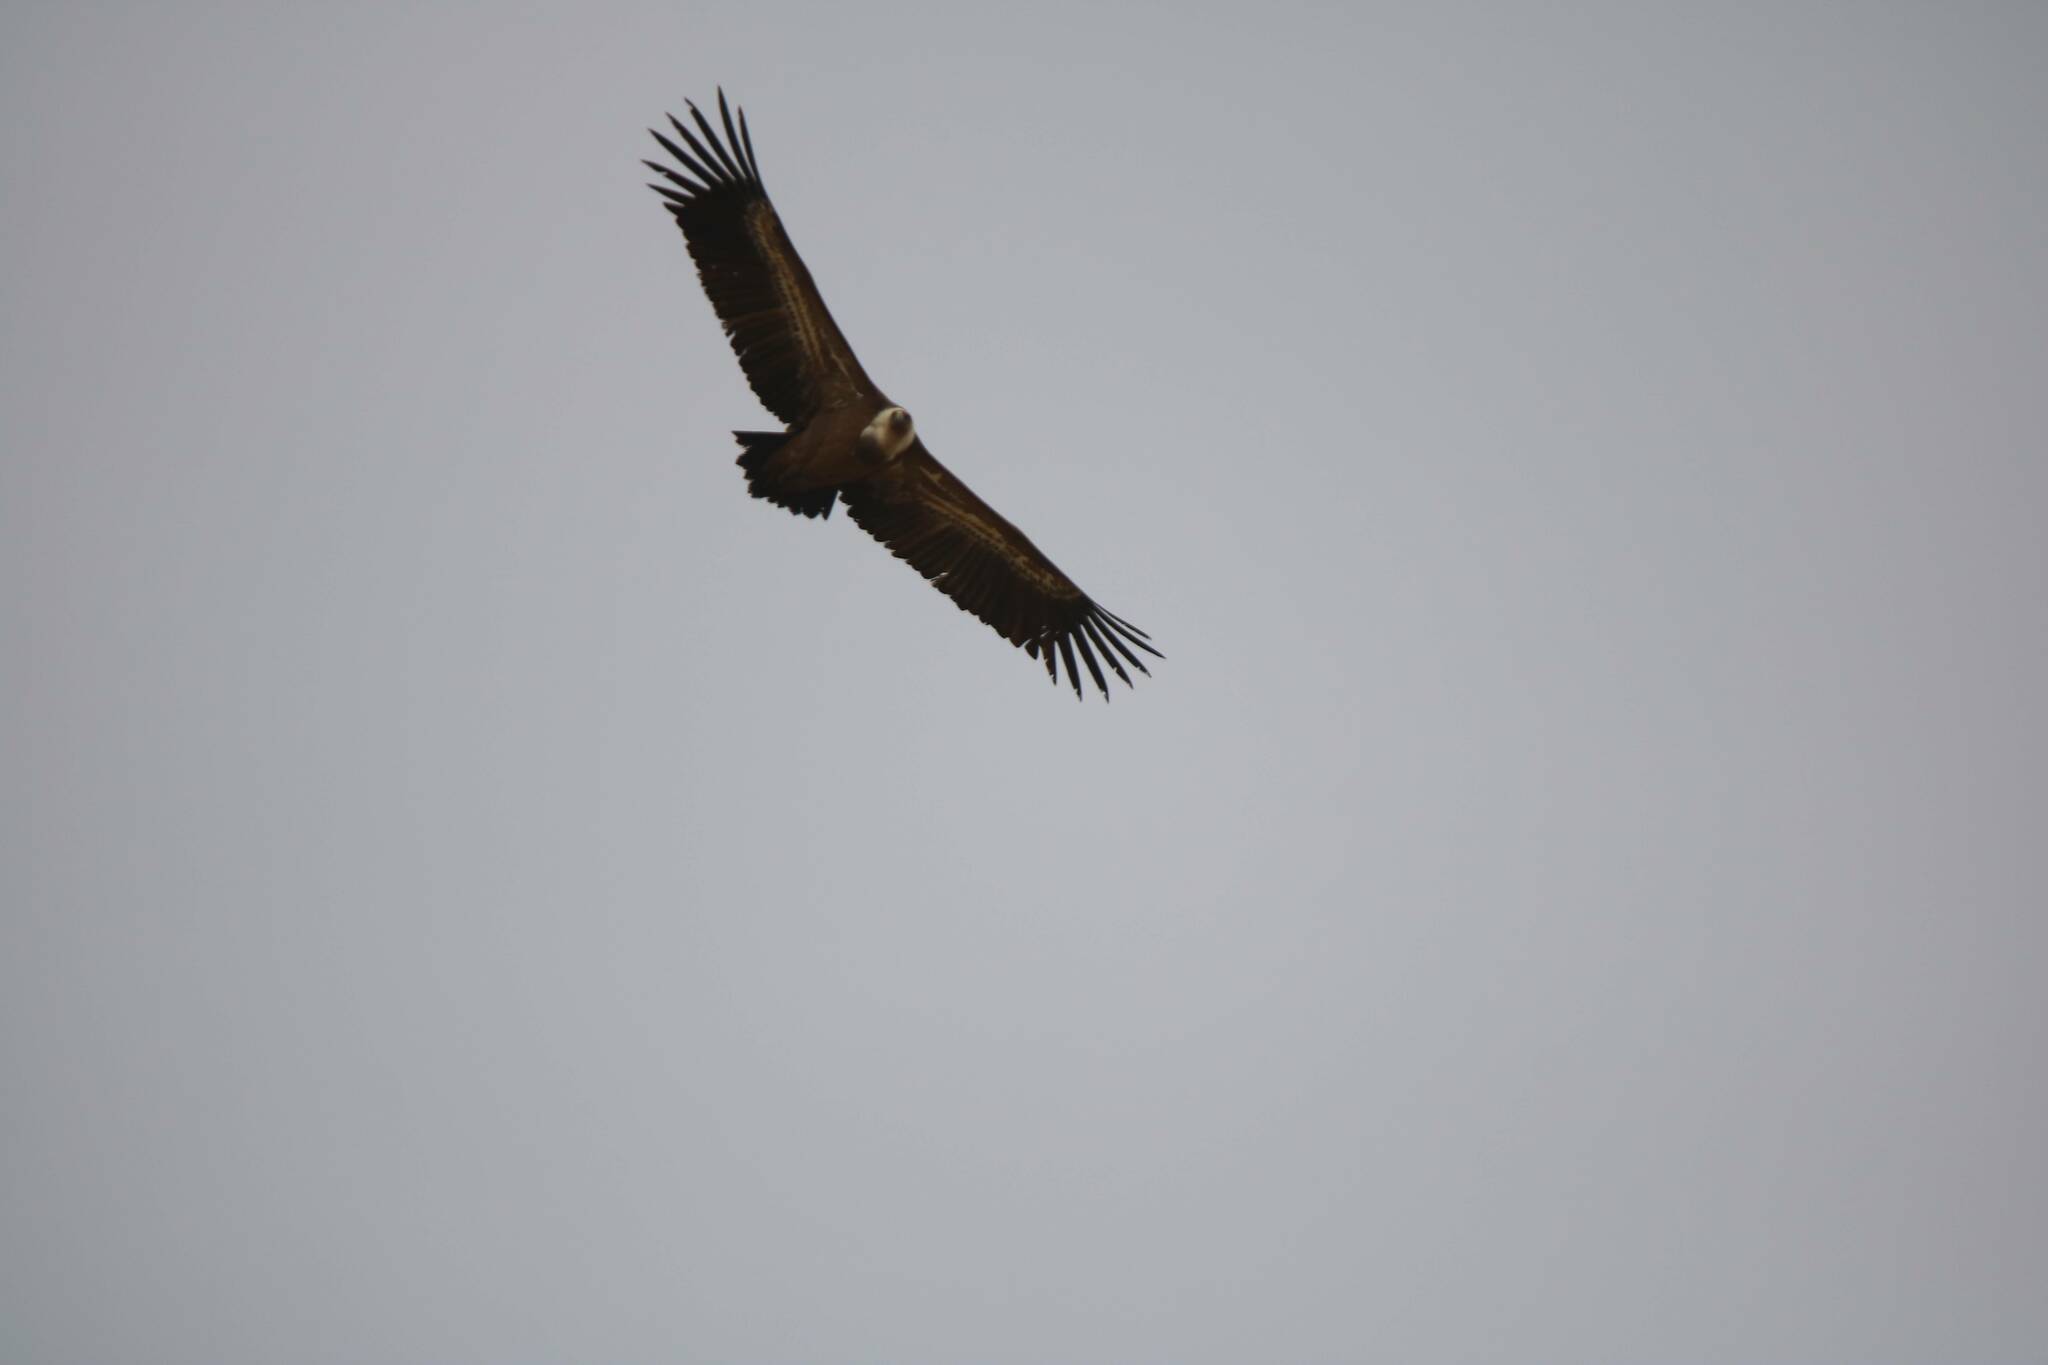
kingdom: Animalia
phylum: Chordata
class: Aves
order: Accipitriformes
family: Accipitridae
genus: Gyps
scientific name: Gyps fulvus
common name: Griffon vulture
